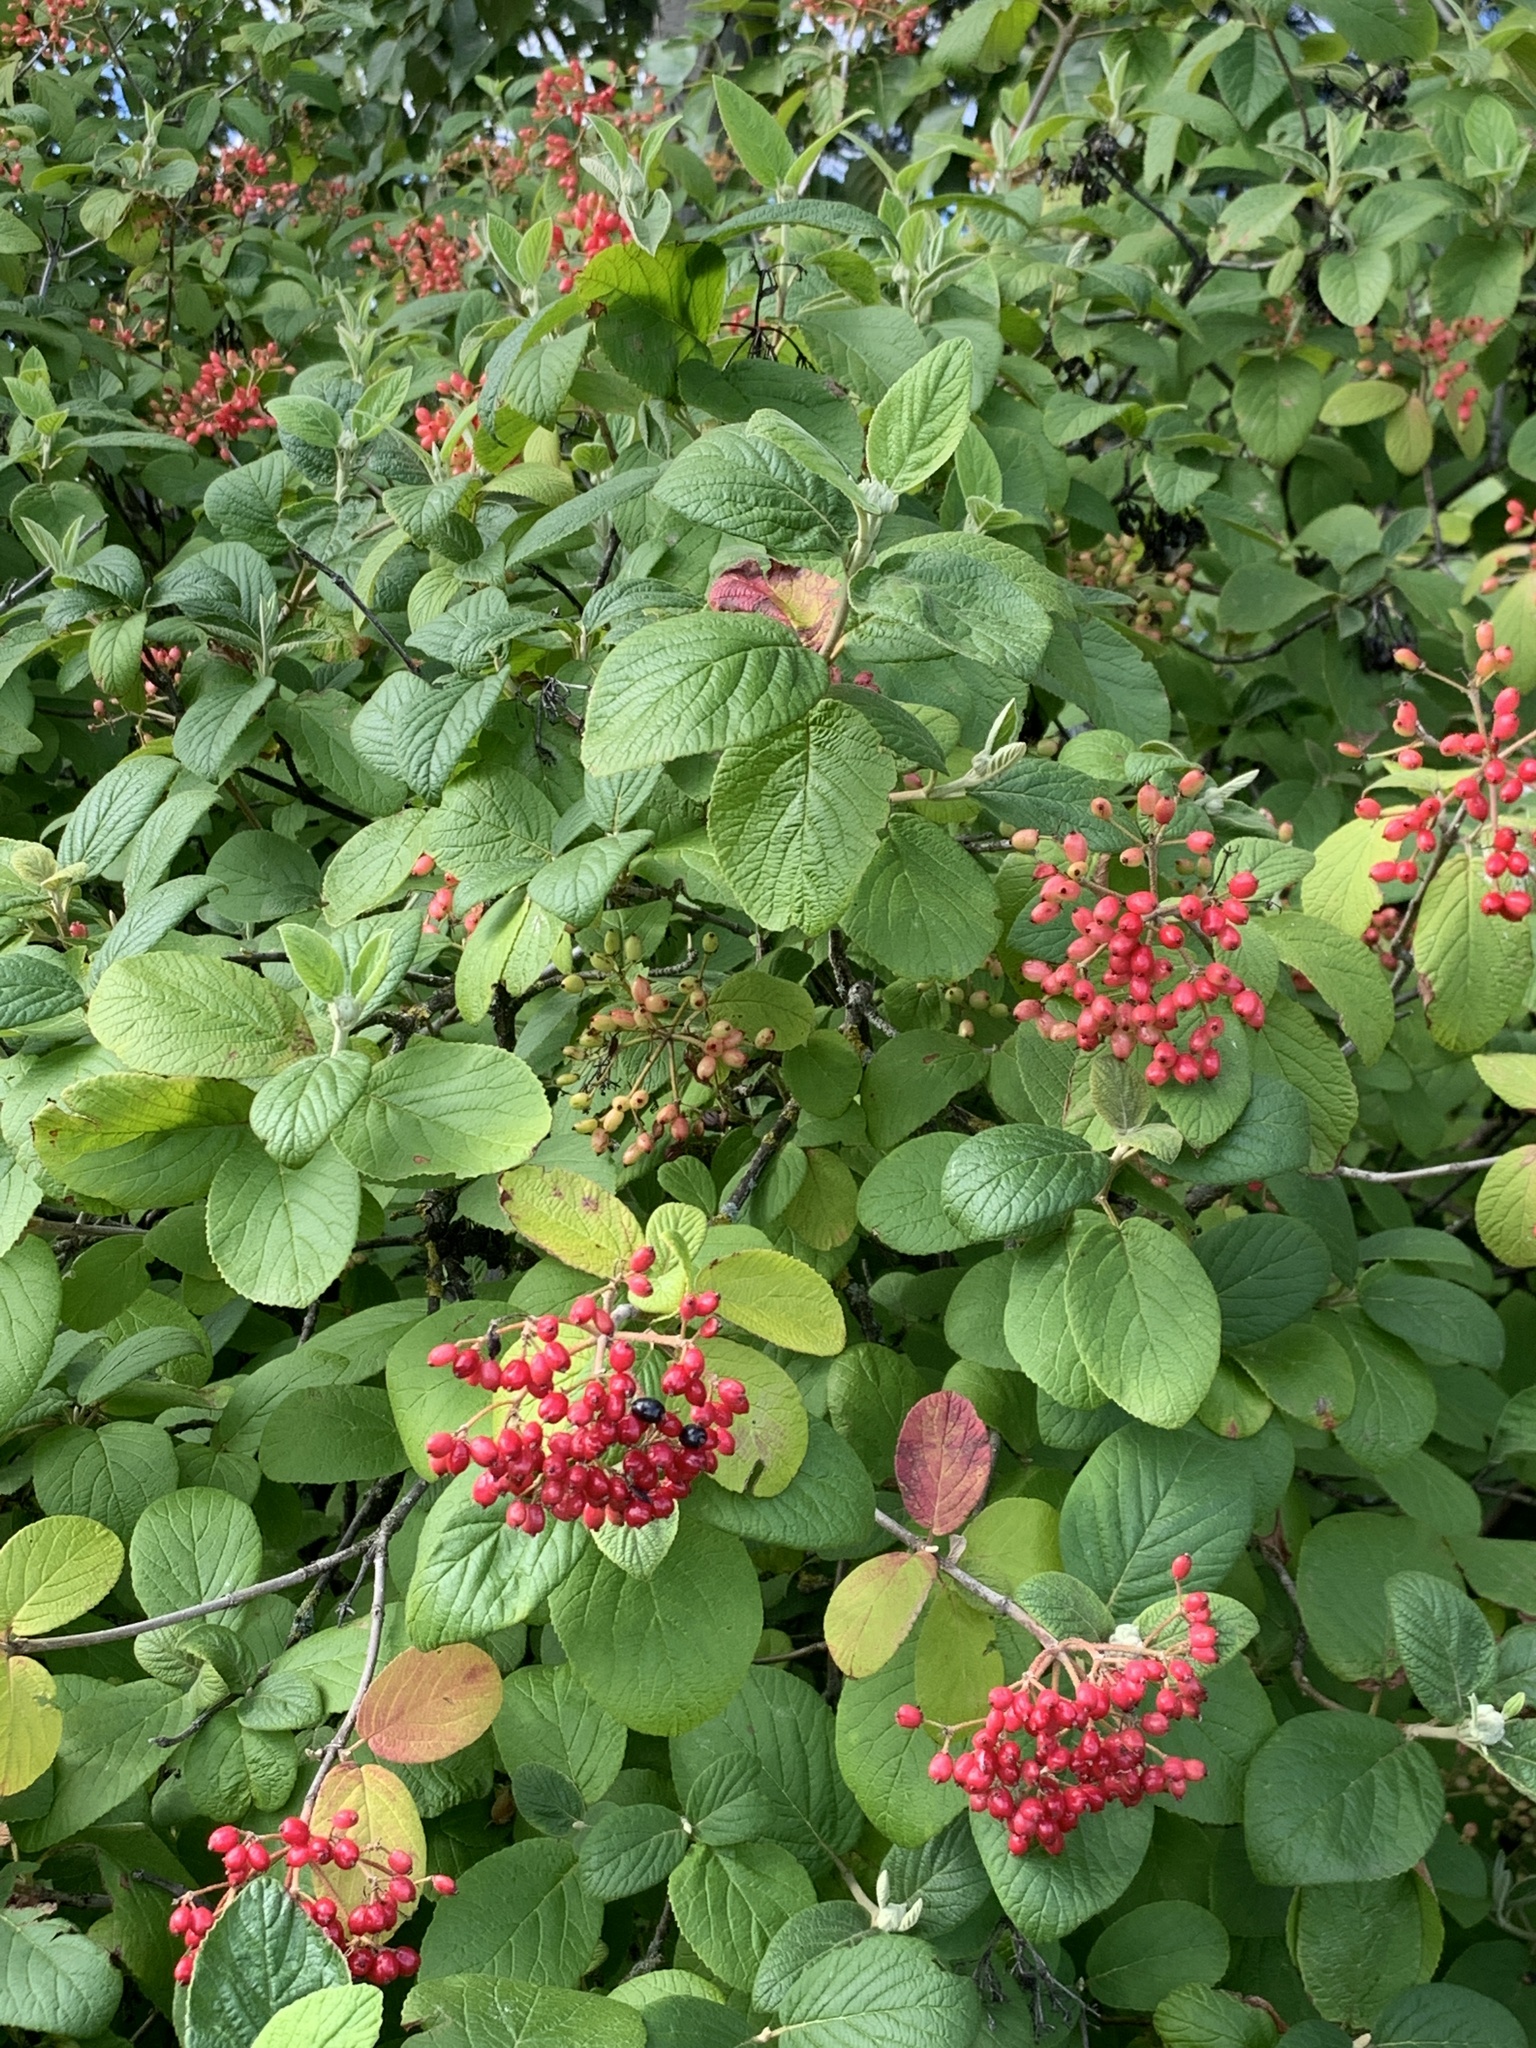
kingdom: Plantae
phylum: Tracheophyta
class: Magnoliopsida
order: Dipsacales
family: Viburnaceae
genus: Viburnum
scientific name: Viburnum lantana
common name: Wayfaring tree
